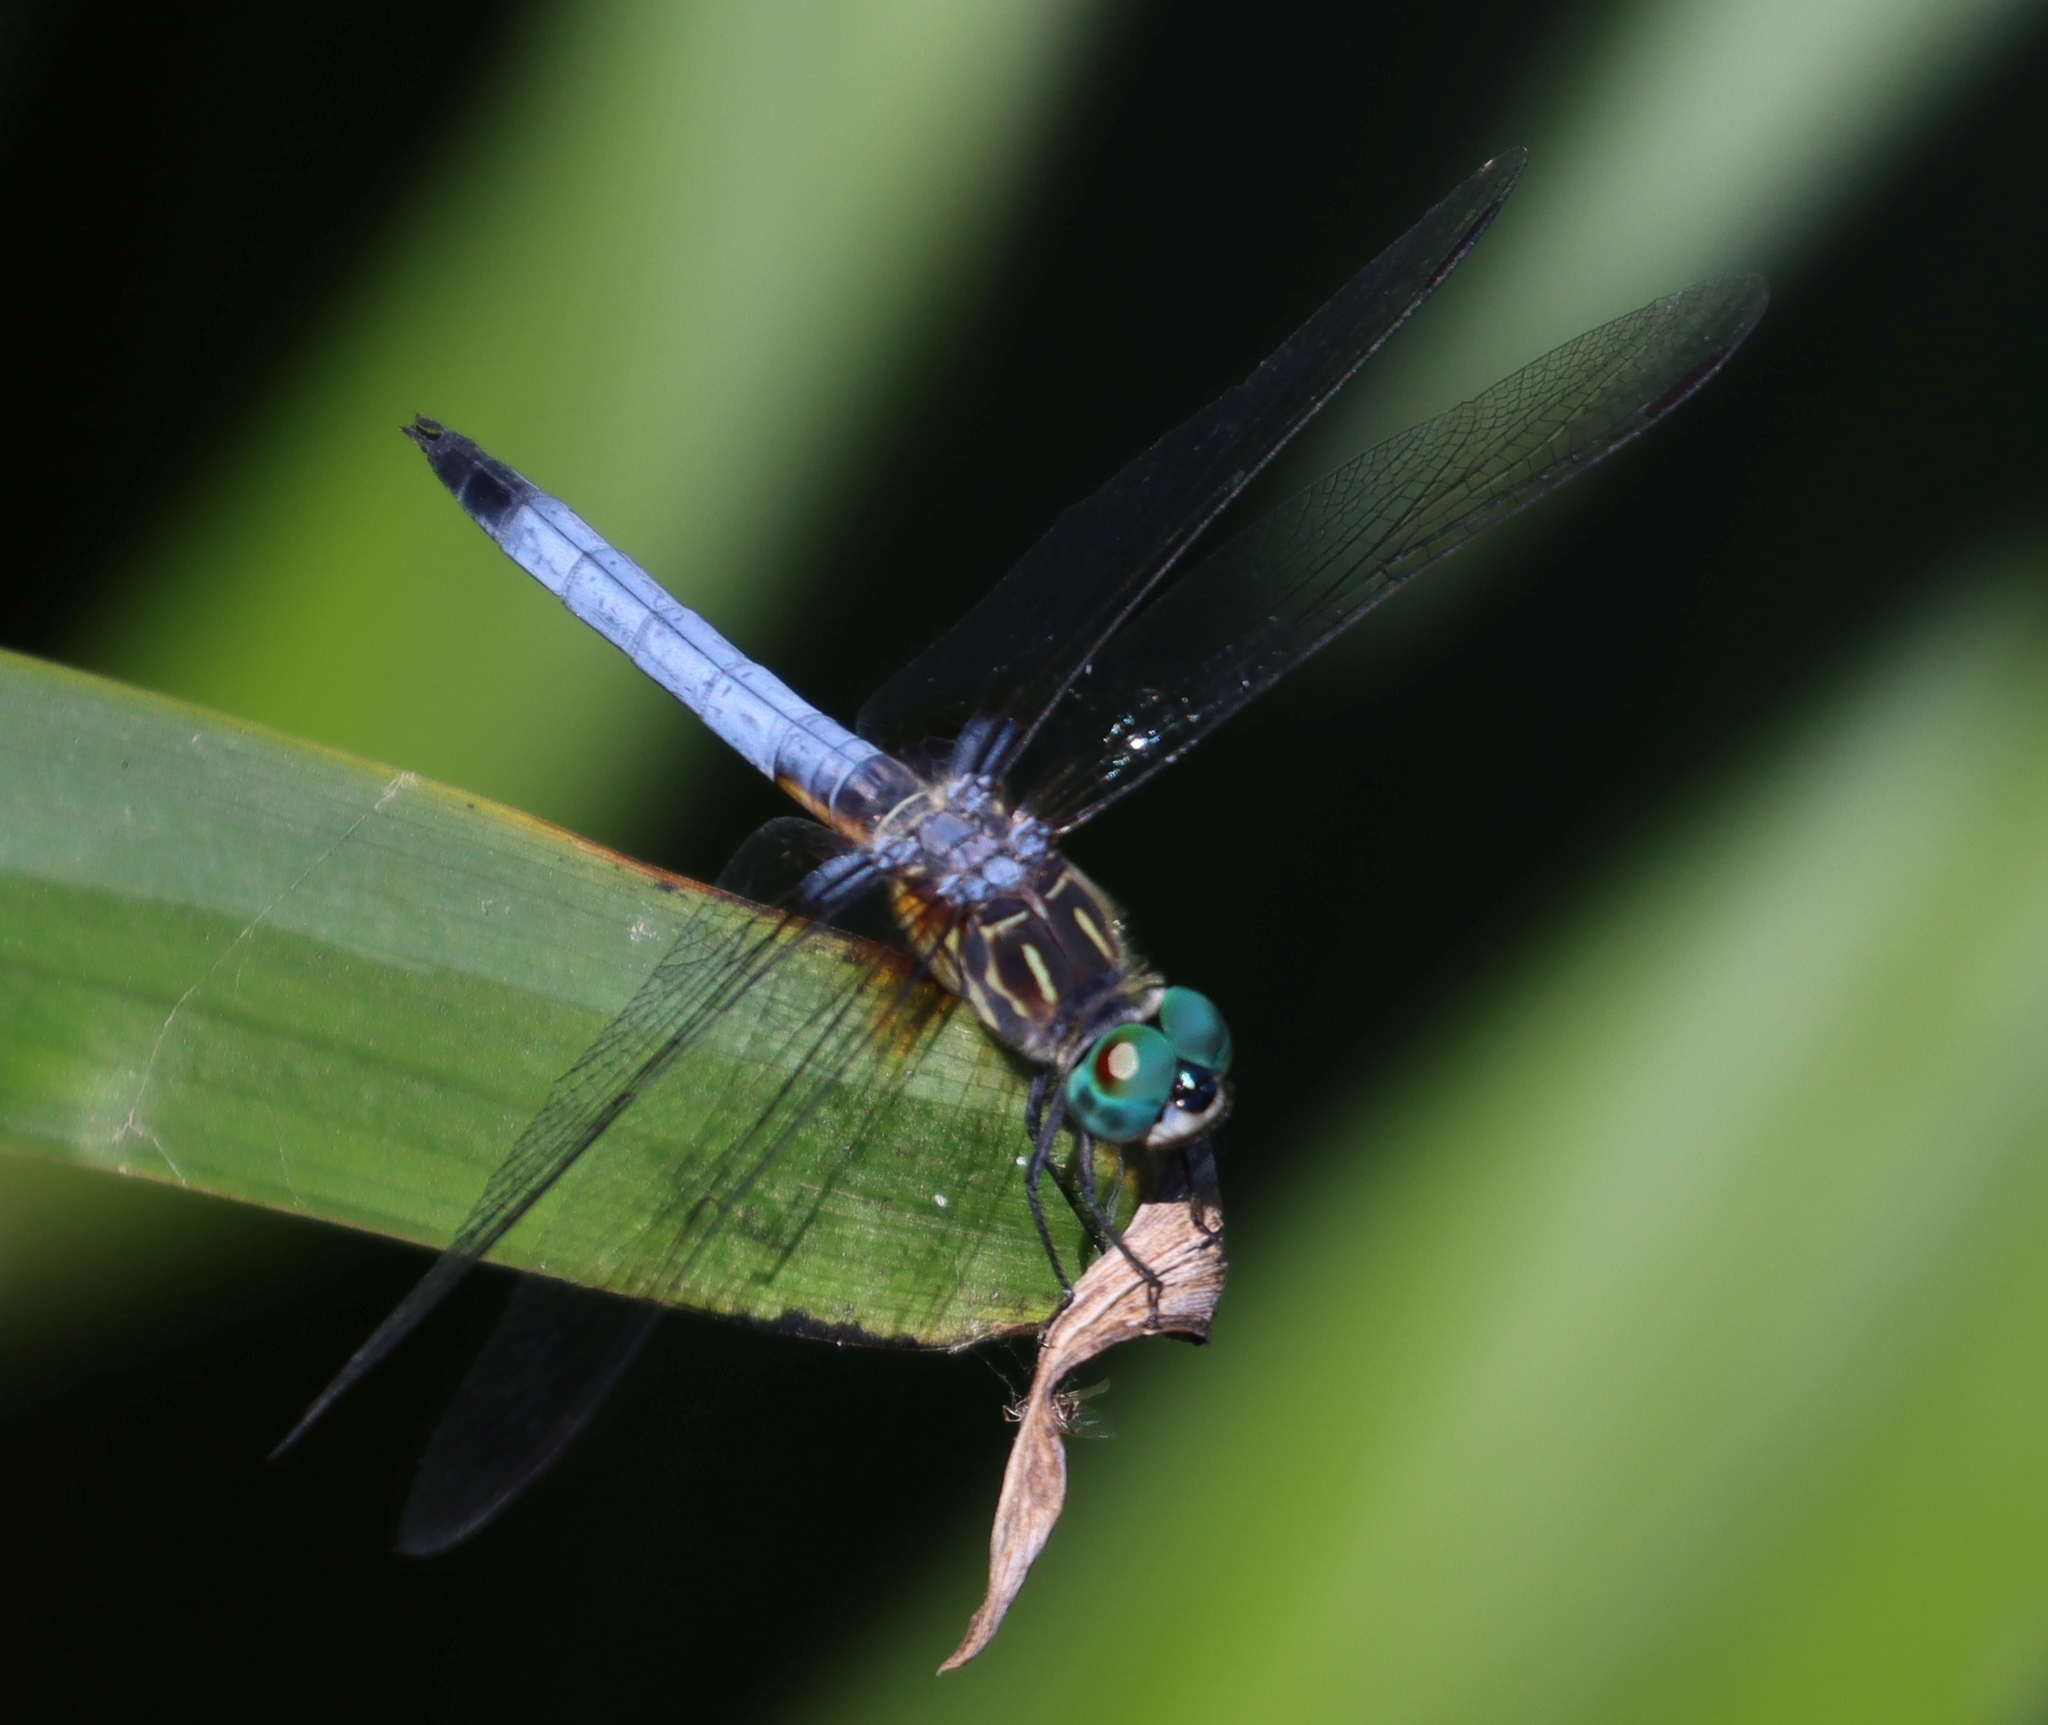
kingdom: Animalia
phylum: Arthropoda
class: Insecta
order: Odonata
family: Libellulidae
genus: Pachydiplax
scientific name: Pachydiplax longipennis
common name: Blue dasher
